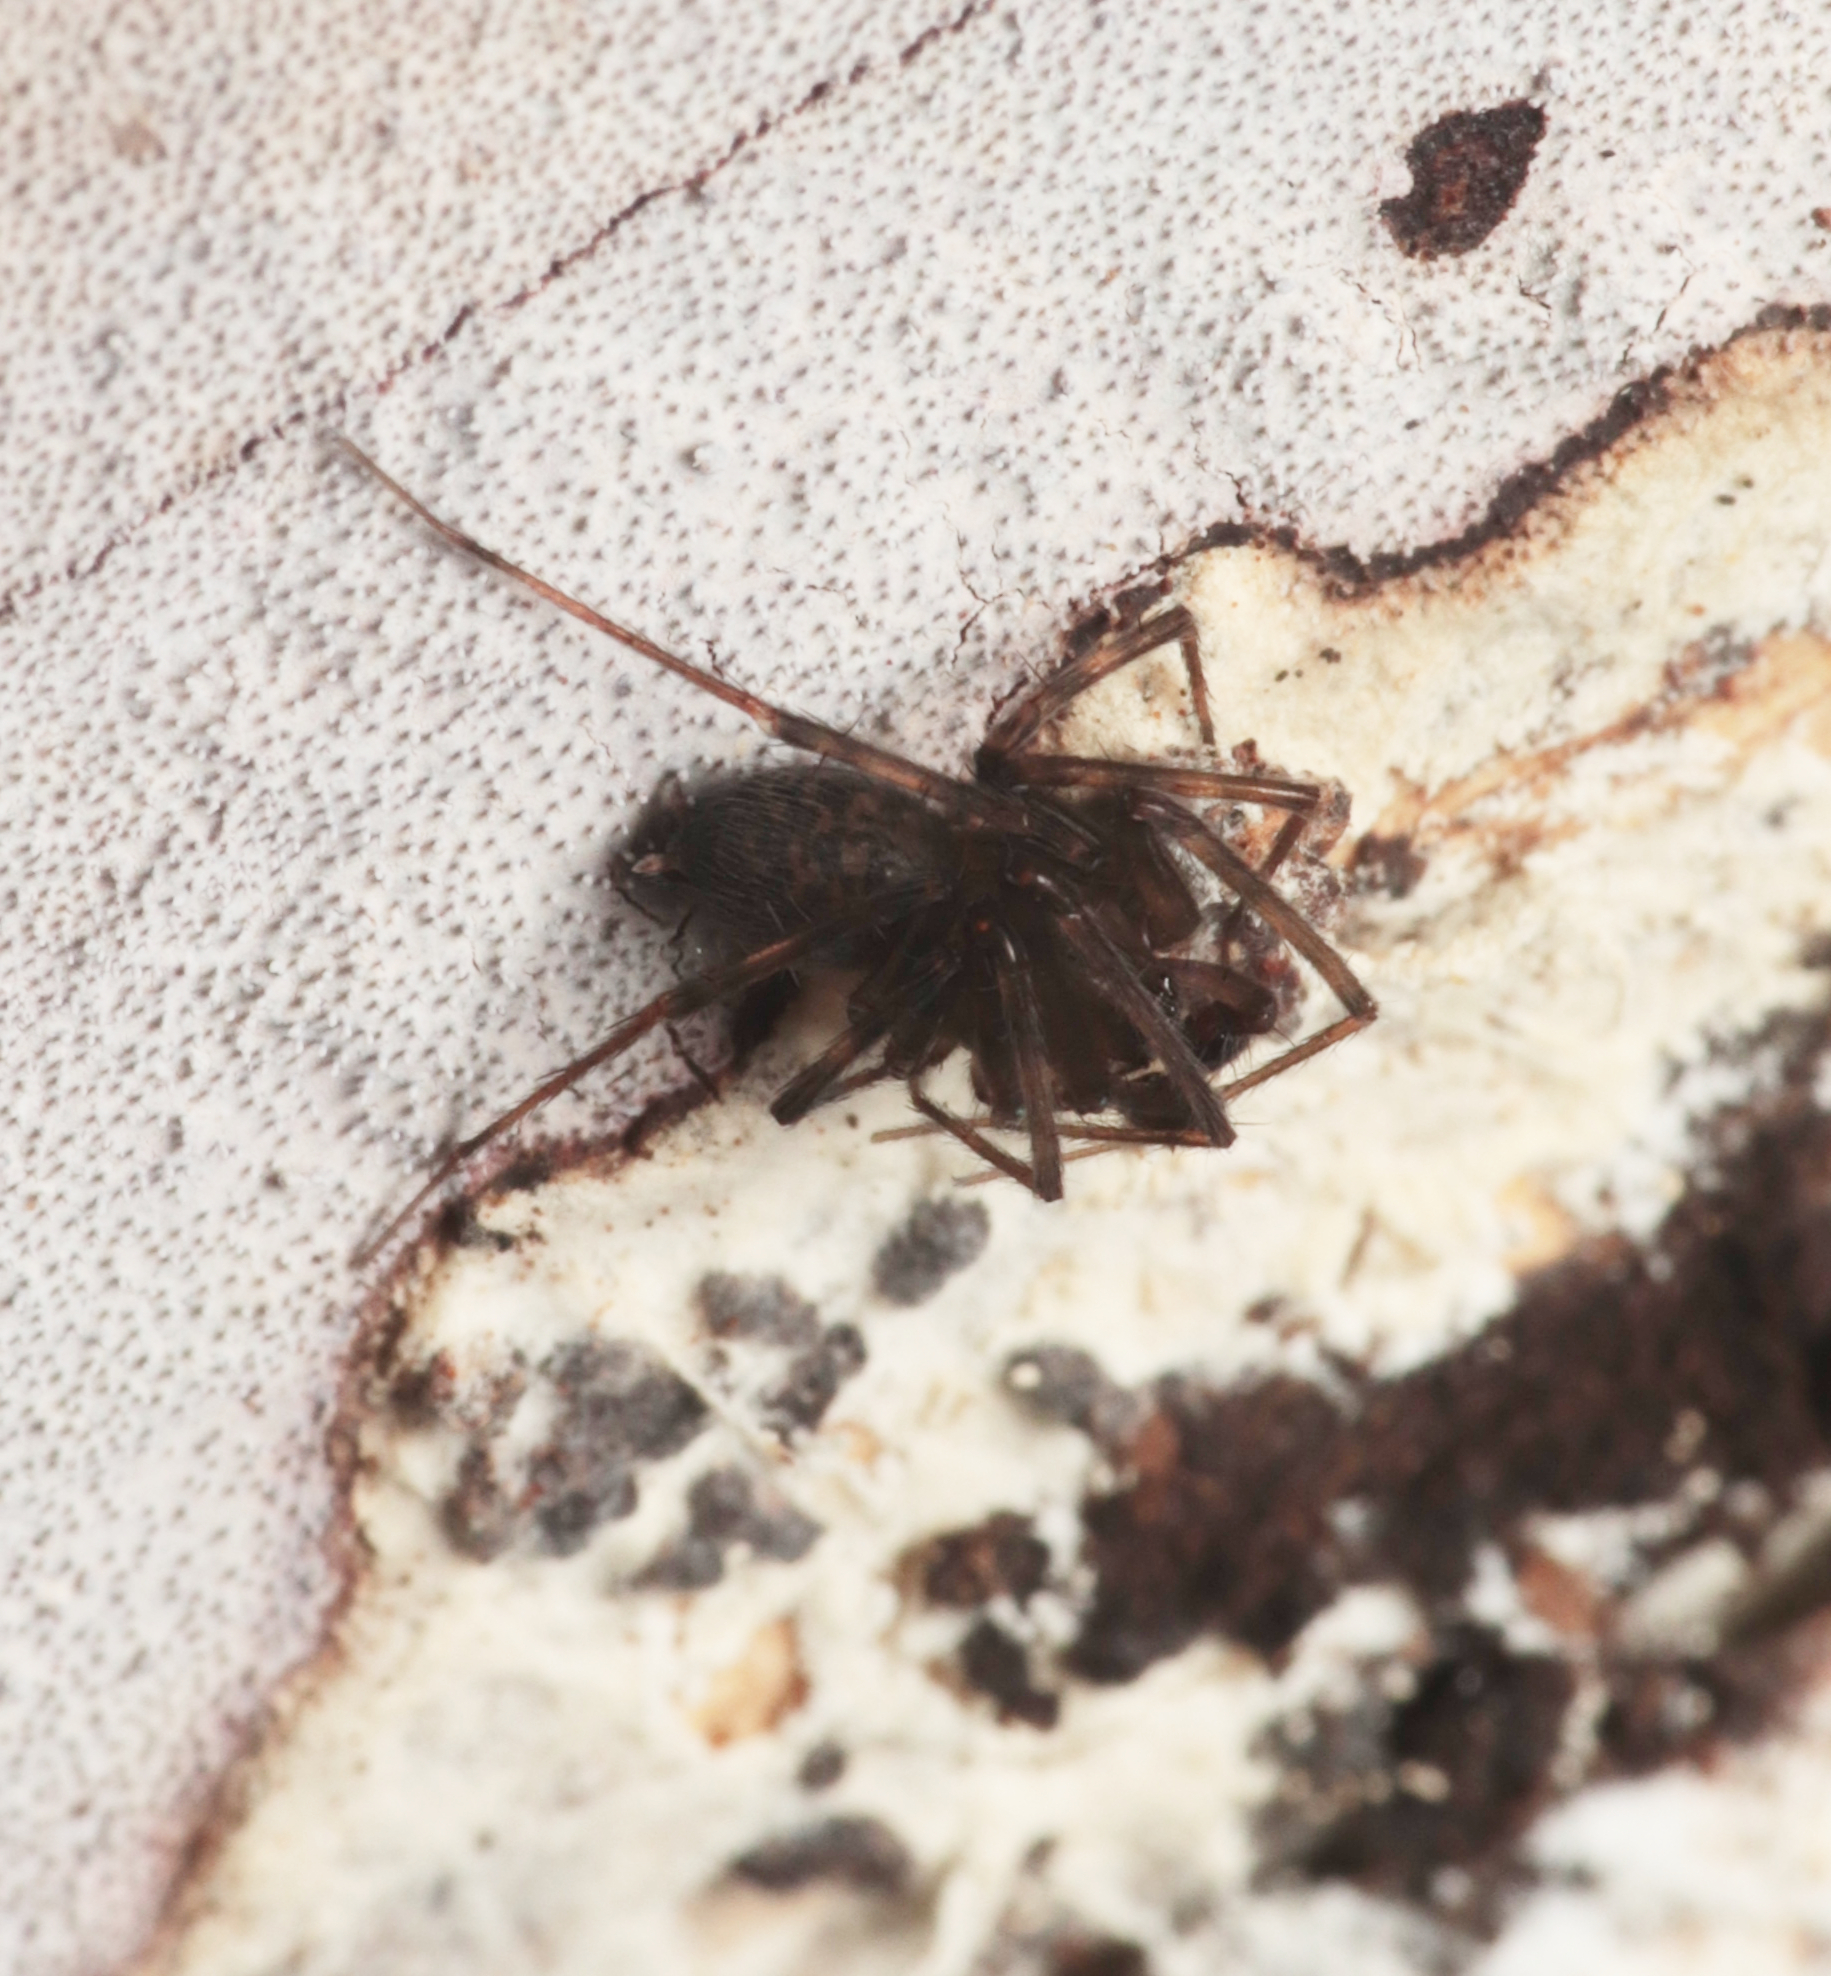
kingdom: Animalia
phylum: Arthropoda
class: Arachnida
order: Araneae
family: Desidae
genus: Barahna
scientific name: Barahna booloumba
